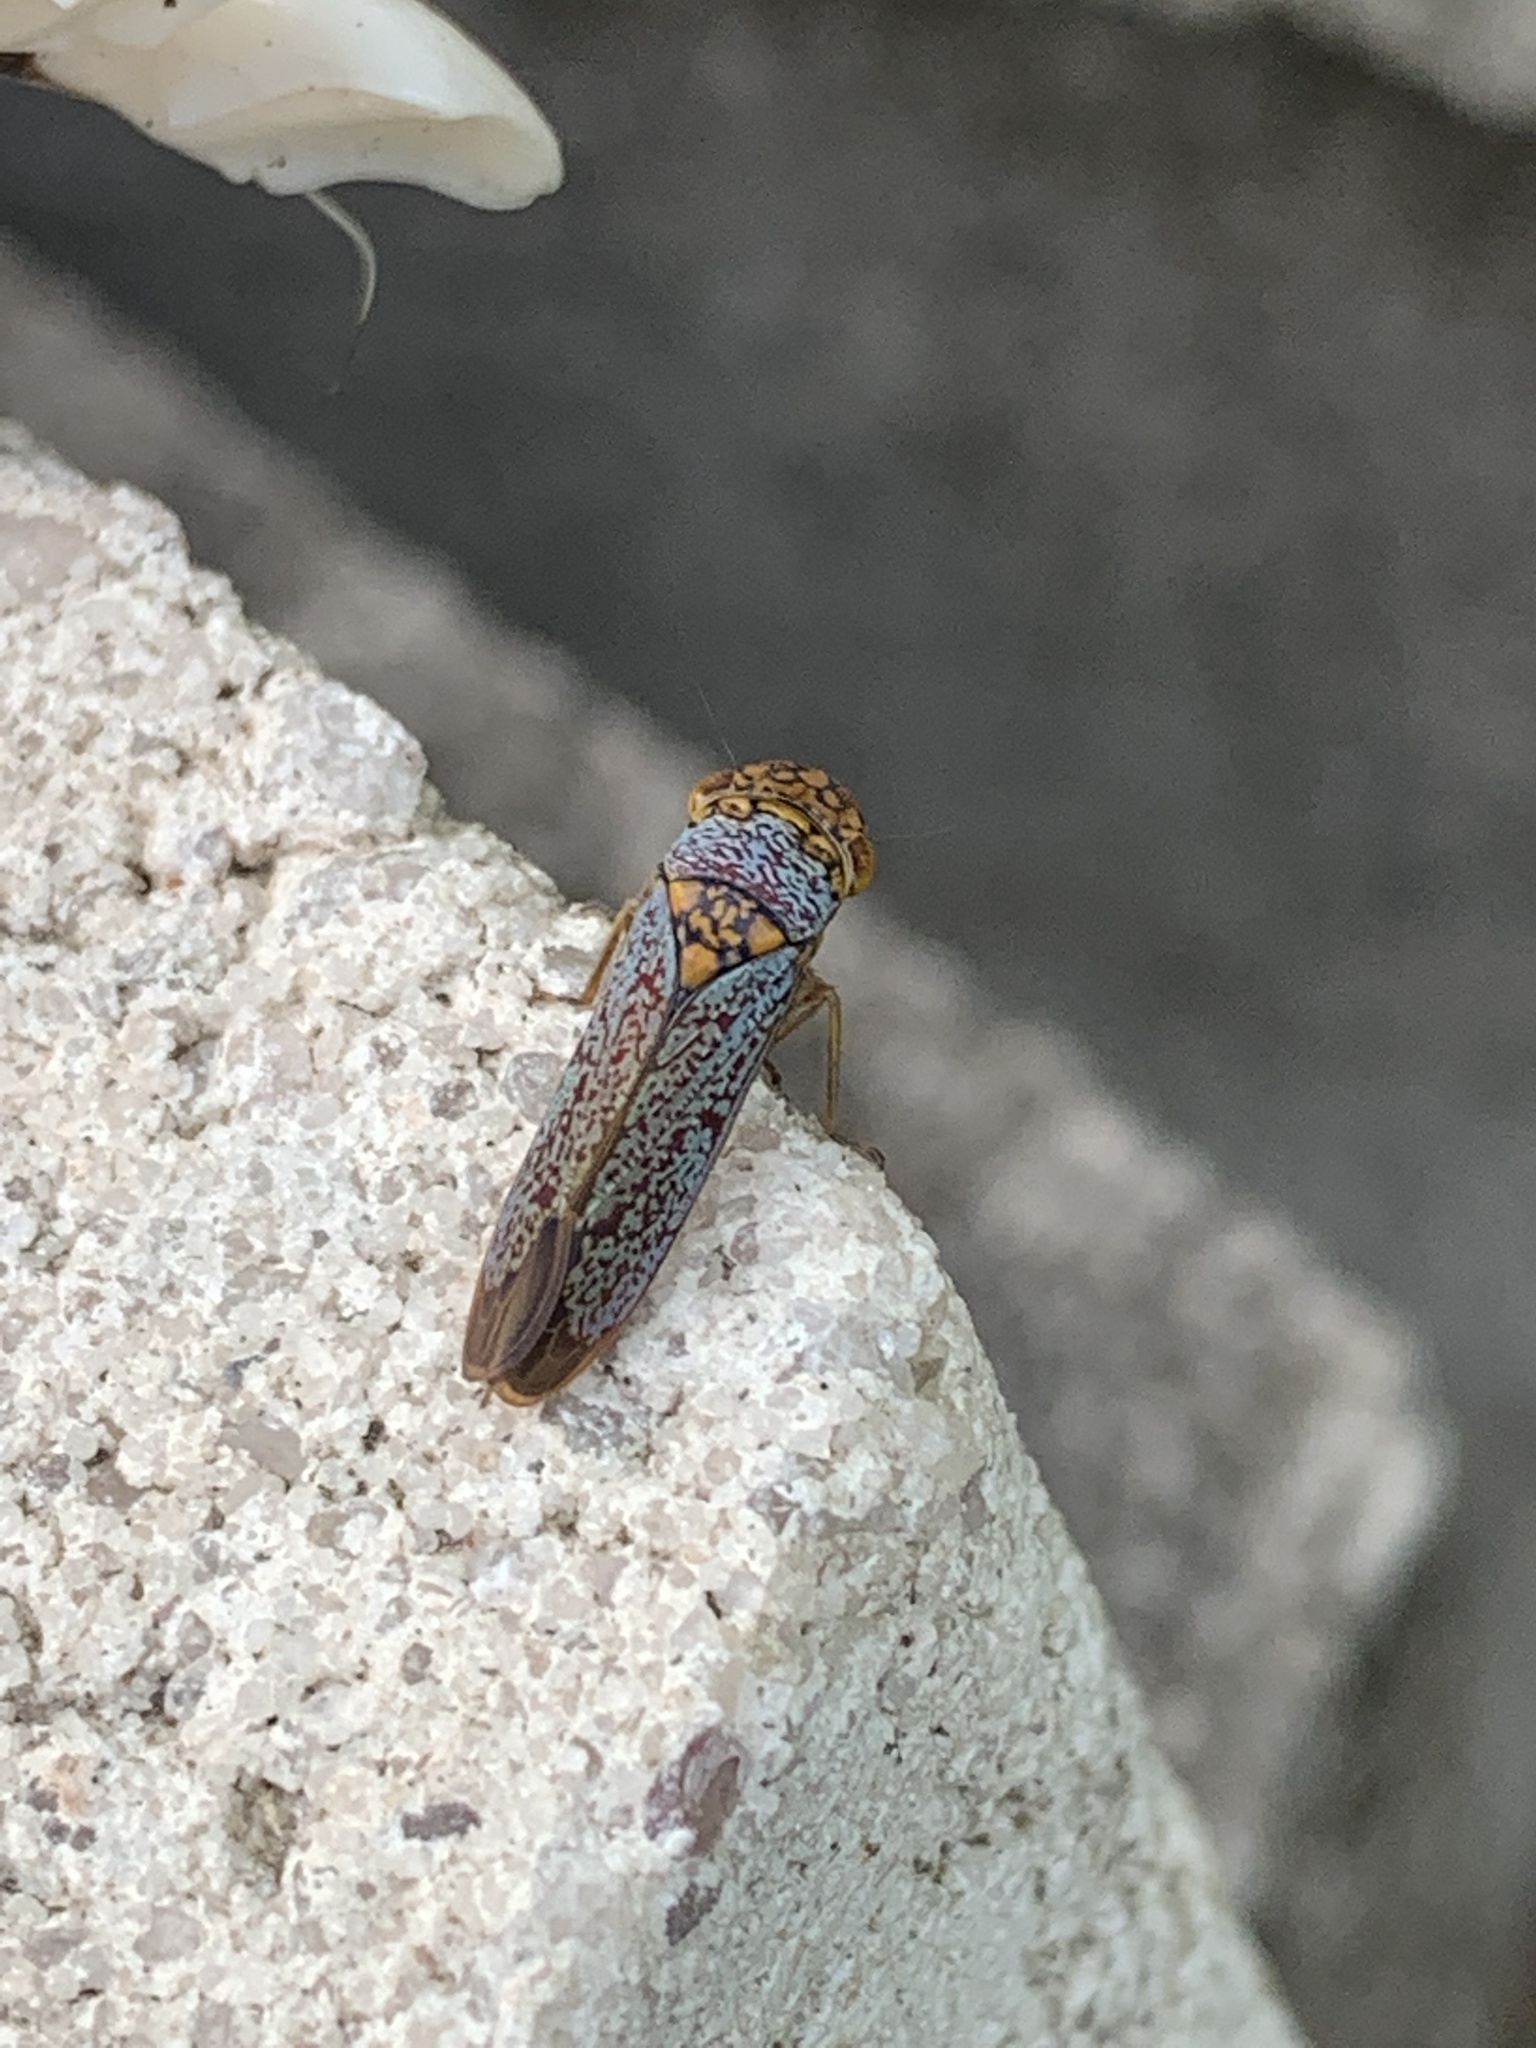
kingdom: Animalia
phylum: Arthropoda
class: Insecta
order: Hemiptera
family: Cicadellidae
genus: Oncometopia
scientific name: Oncometopia orbona
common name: Broad-headed sharpshooter
